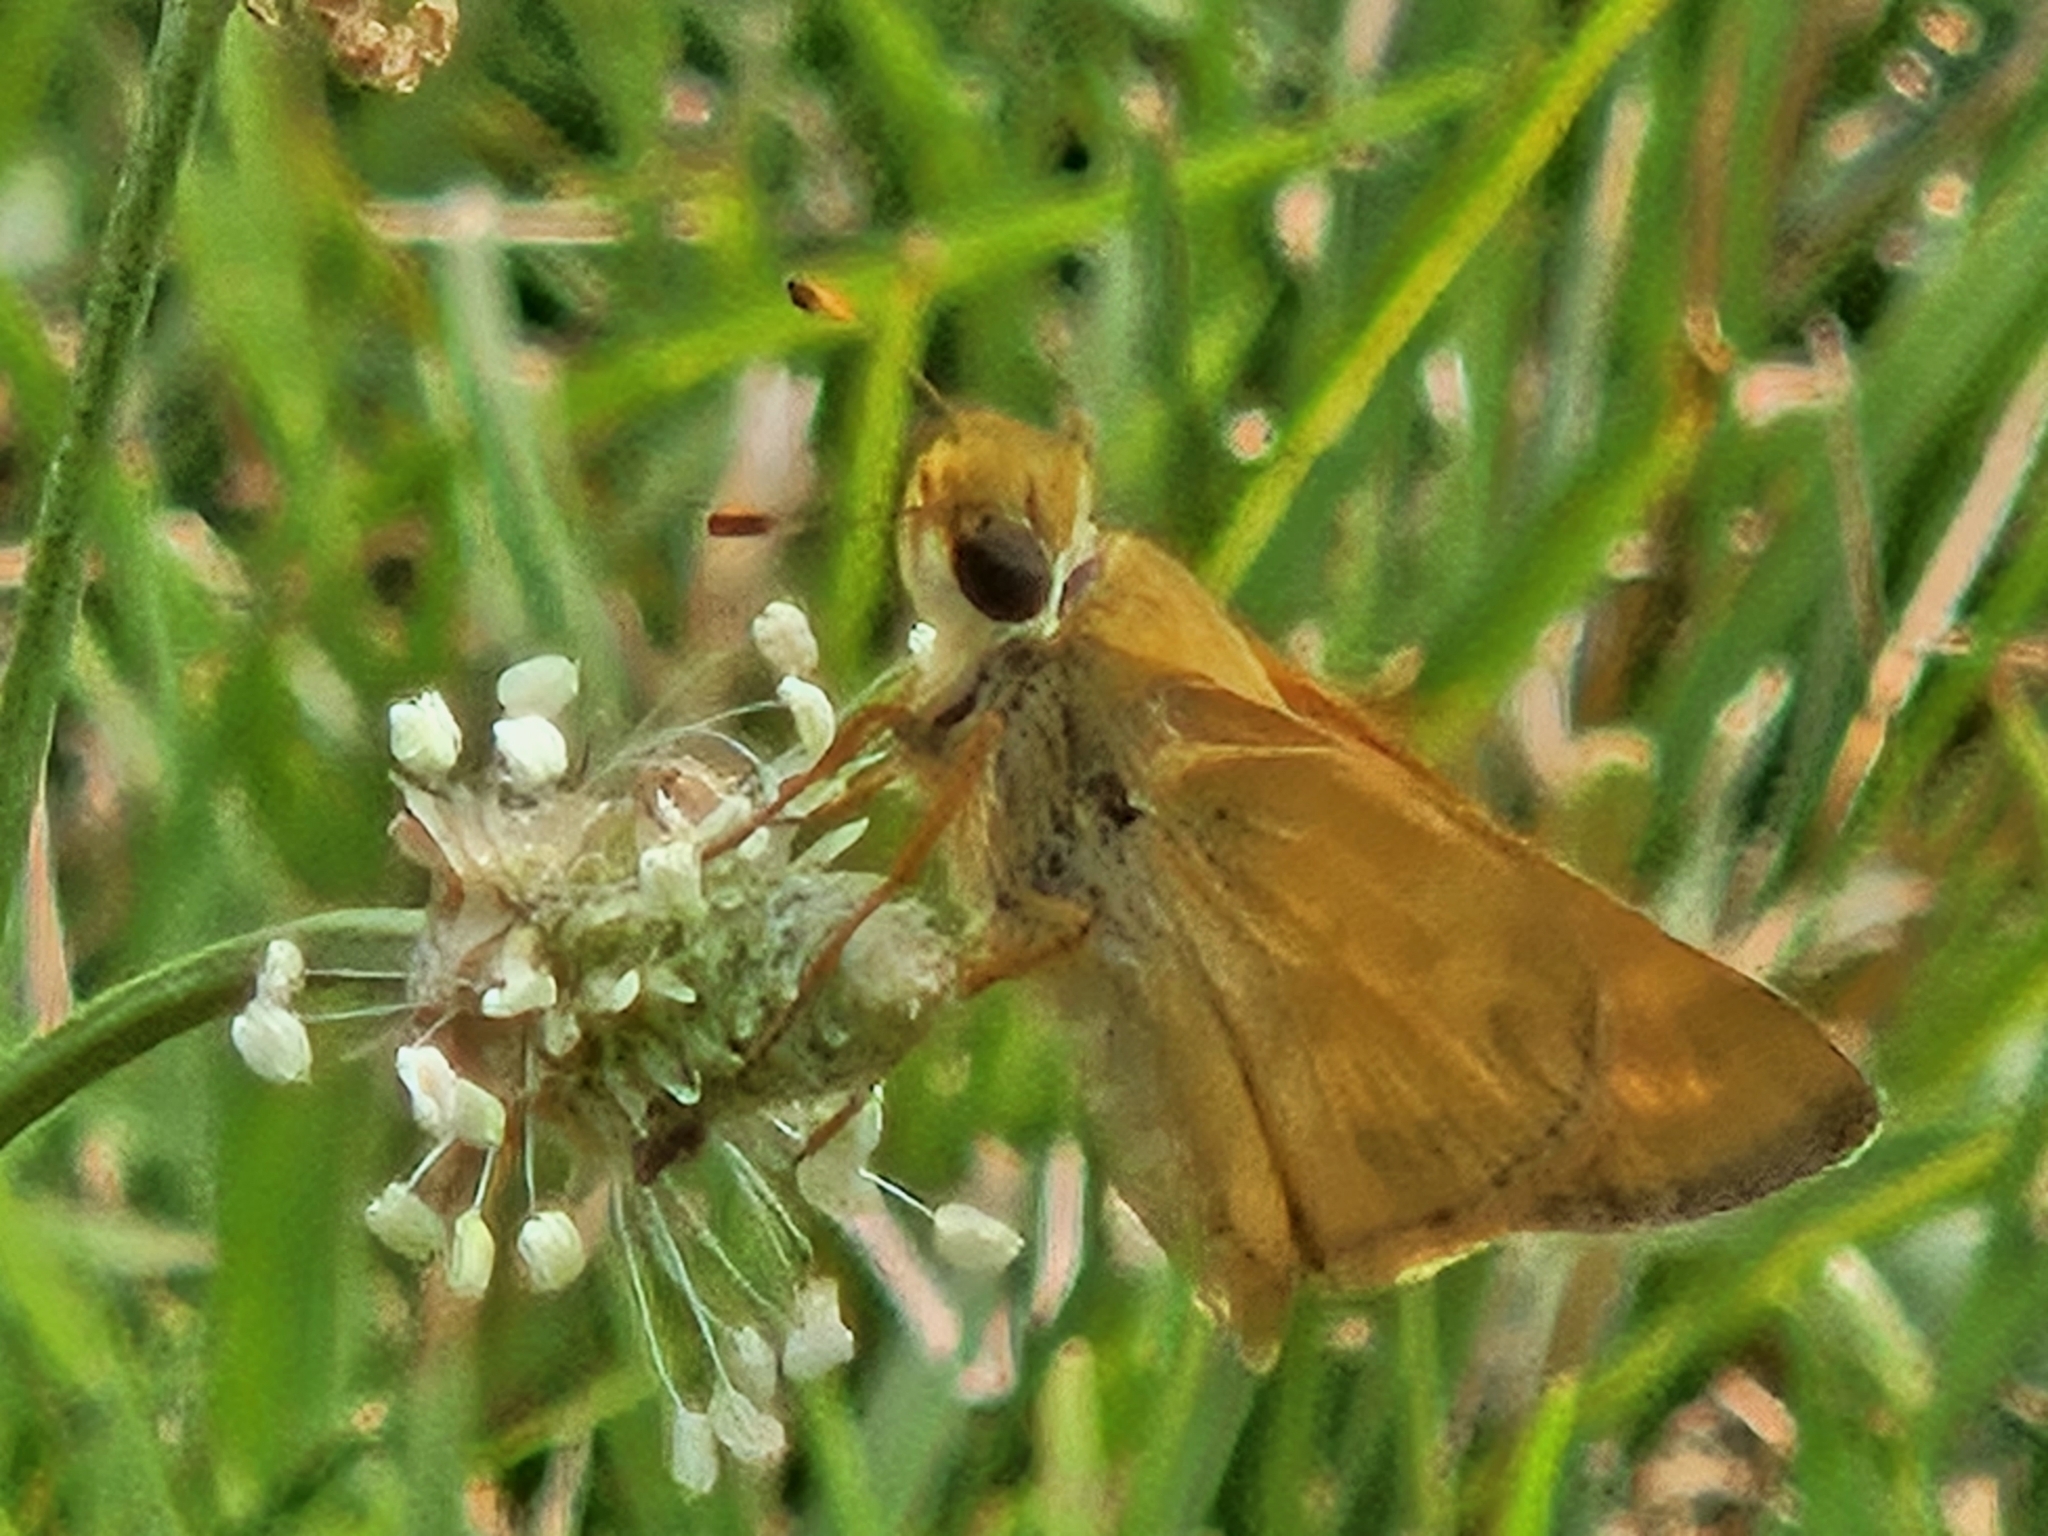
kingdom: Animalia
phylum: Arthropoda
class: Insecta
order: Lepidoptera
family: Hesperiidae
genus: Atalopedes
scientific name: Atalopedes
